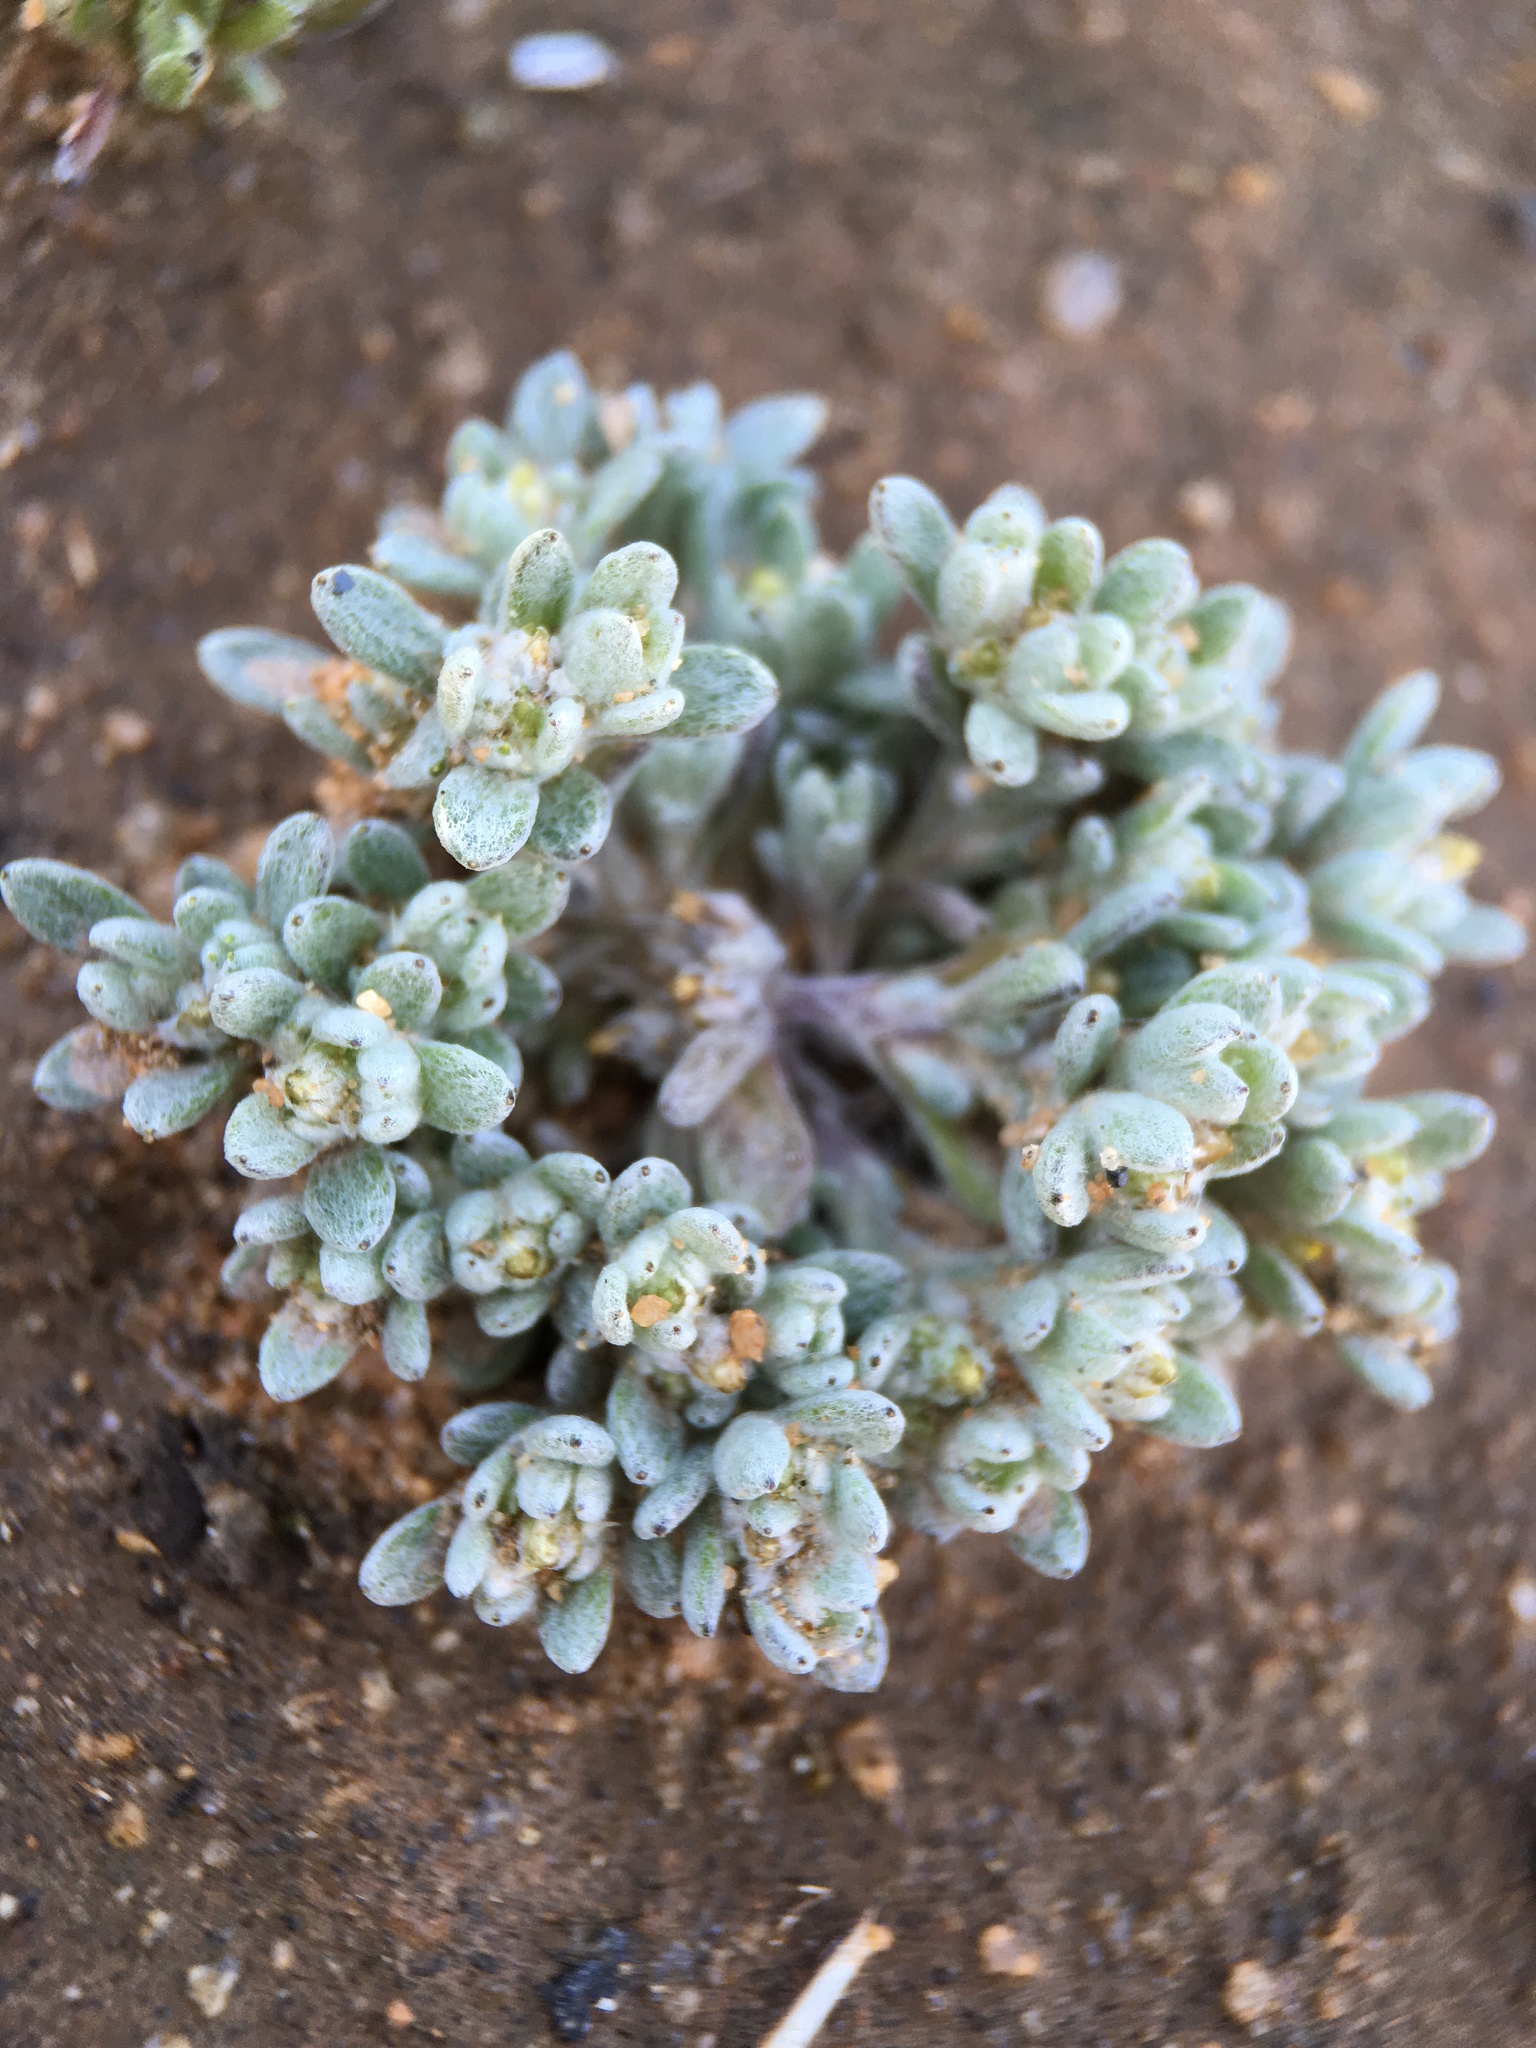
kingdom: Plantae
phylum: Tracheophyta
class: Magnoliopsida
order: Asterales
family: Asteraceae
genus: Logfia
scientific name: Logfia depressa
